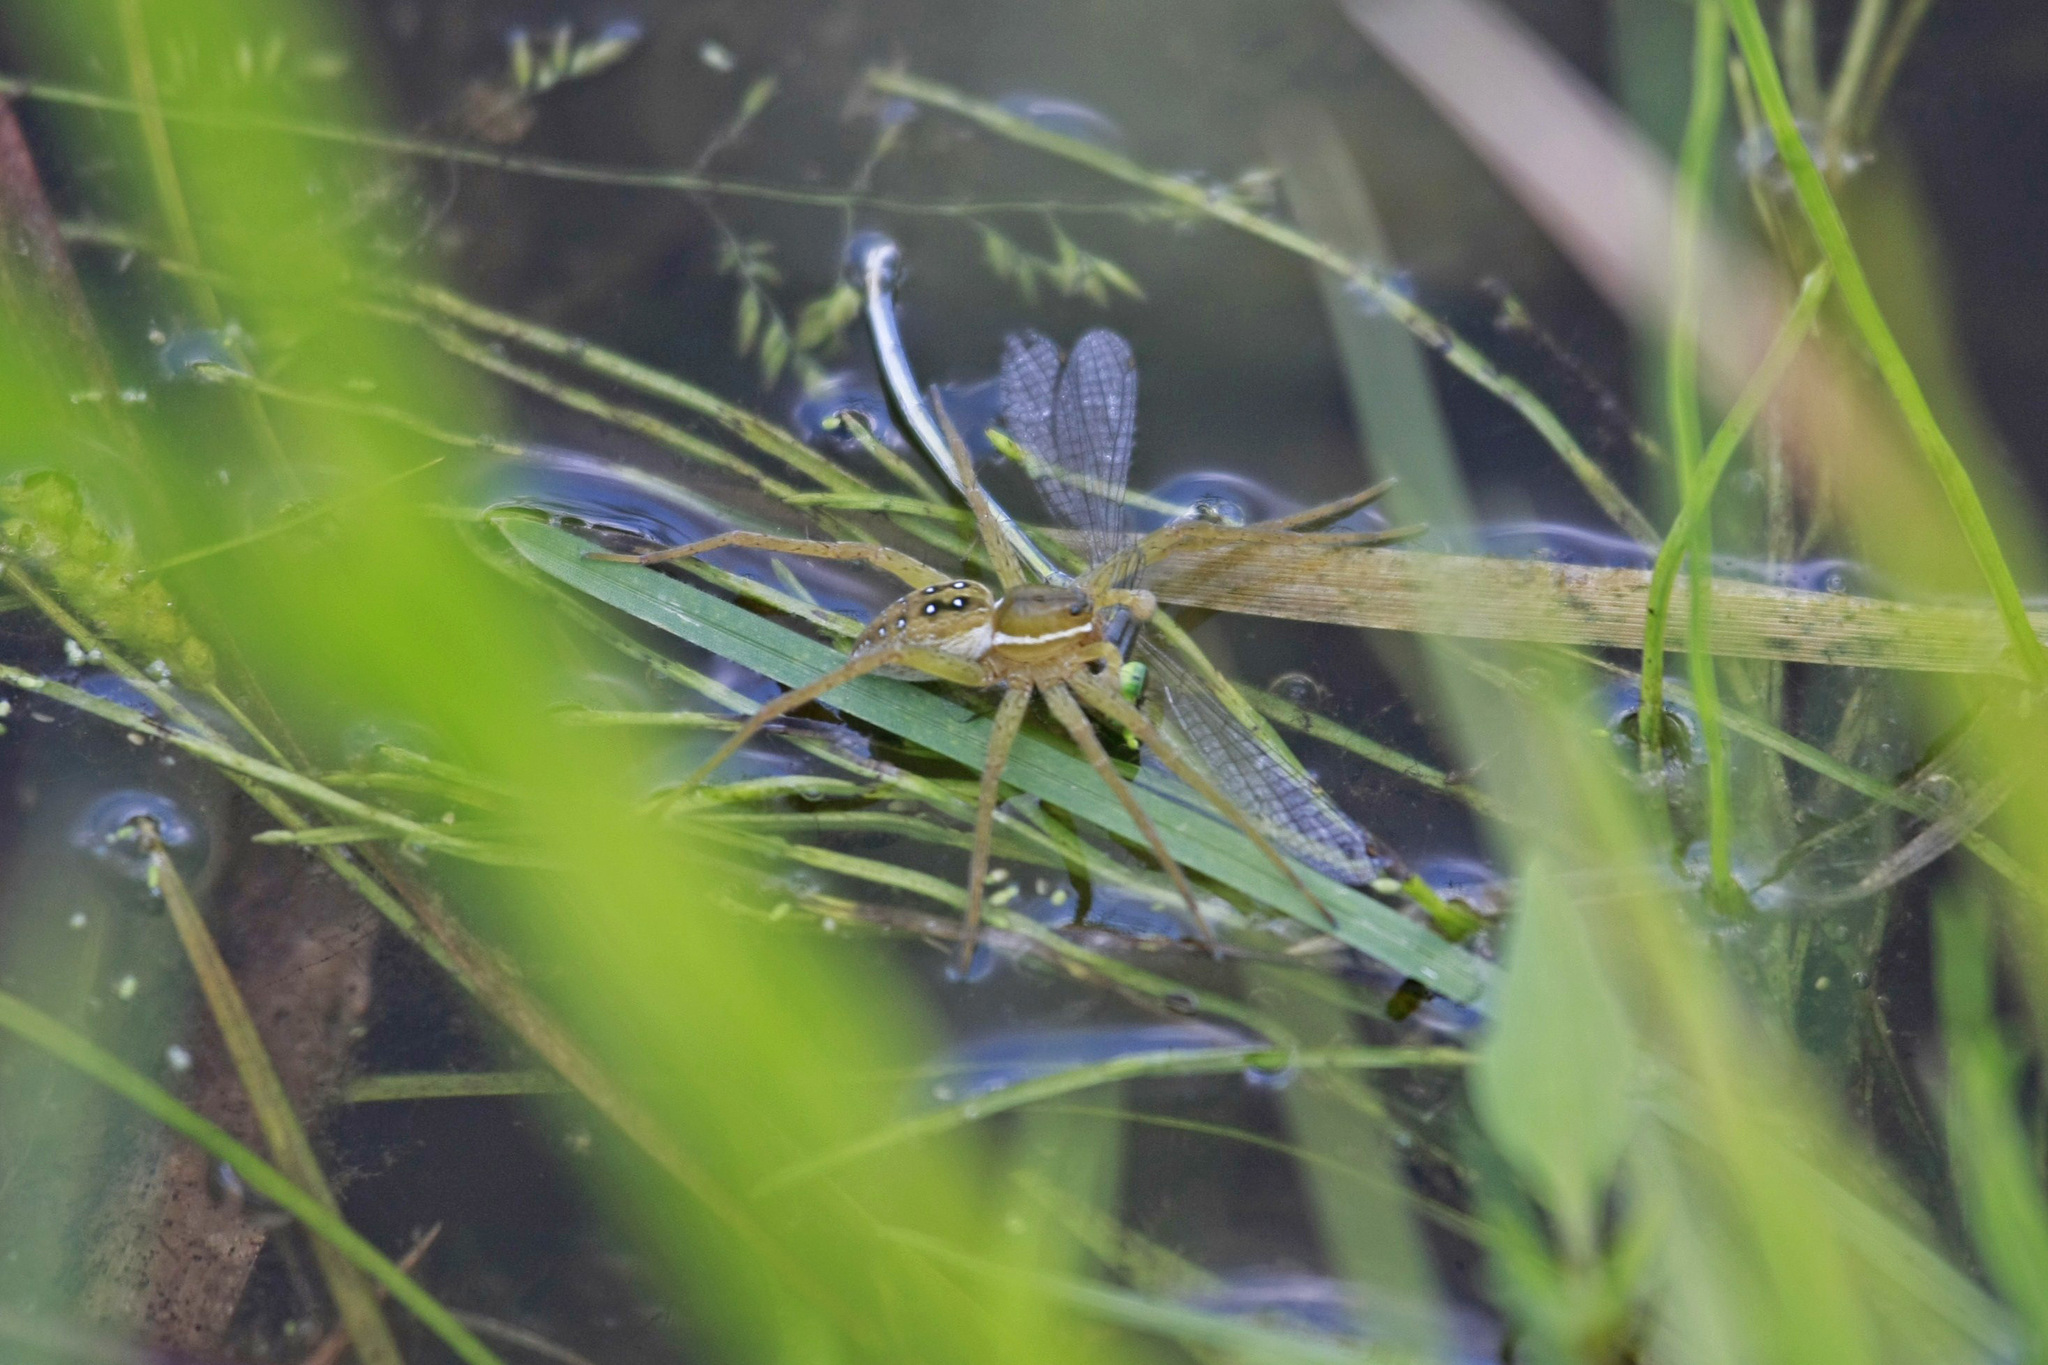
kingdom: Animalia
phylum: Arthropoda
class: Arachnida
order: Araneae
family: Pisauridae
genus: Dolomedes
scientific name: Dolomedes triton
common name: Six-spotted fishing spider
